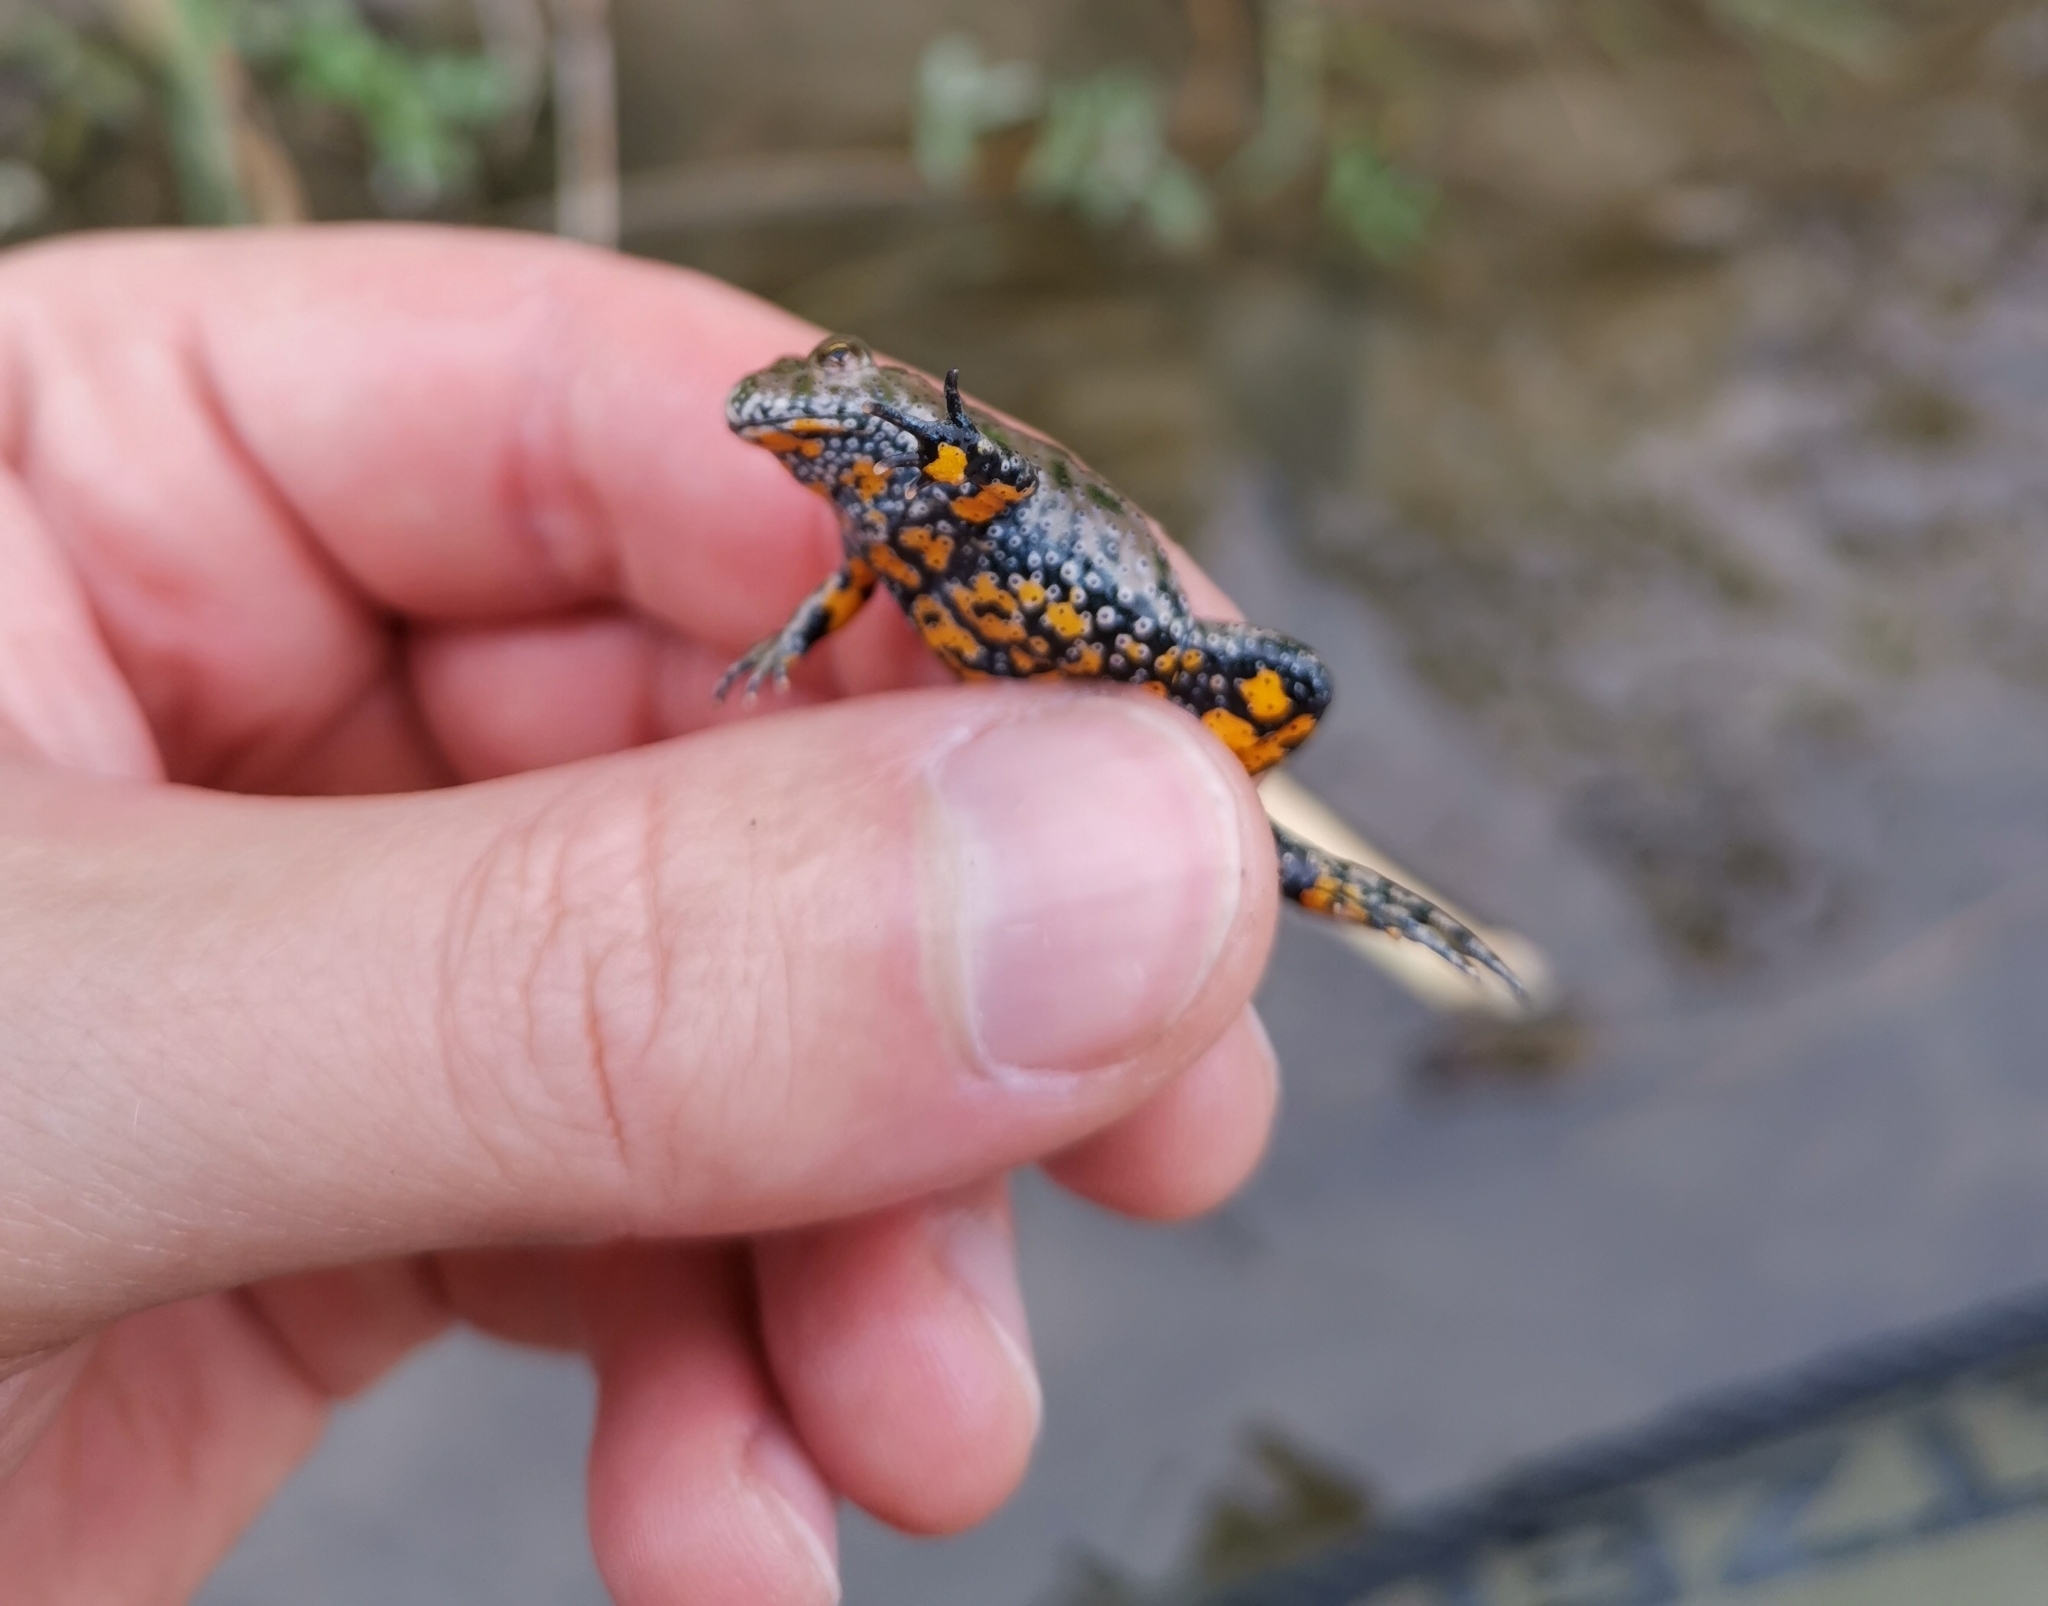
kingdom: Animalia
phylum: Chordata
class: Amphibia
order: Anura
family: Bombinatoridae
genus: Bombina
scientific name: Bombina bombina
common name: Fire-bellied toad
